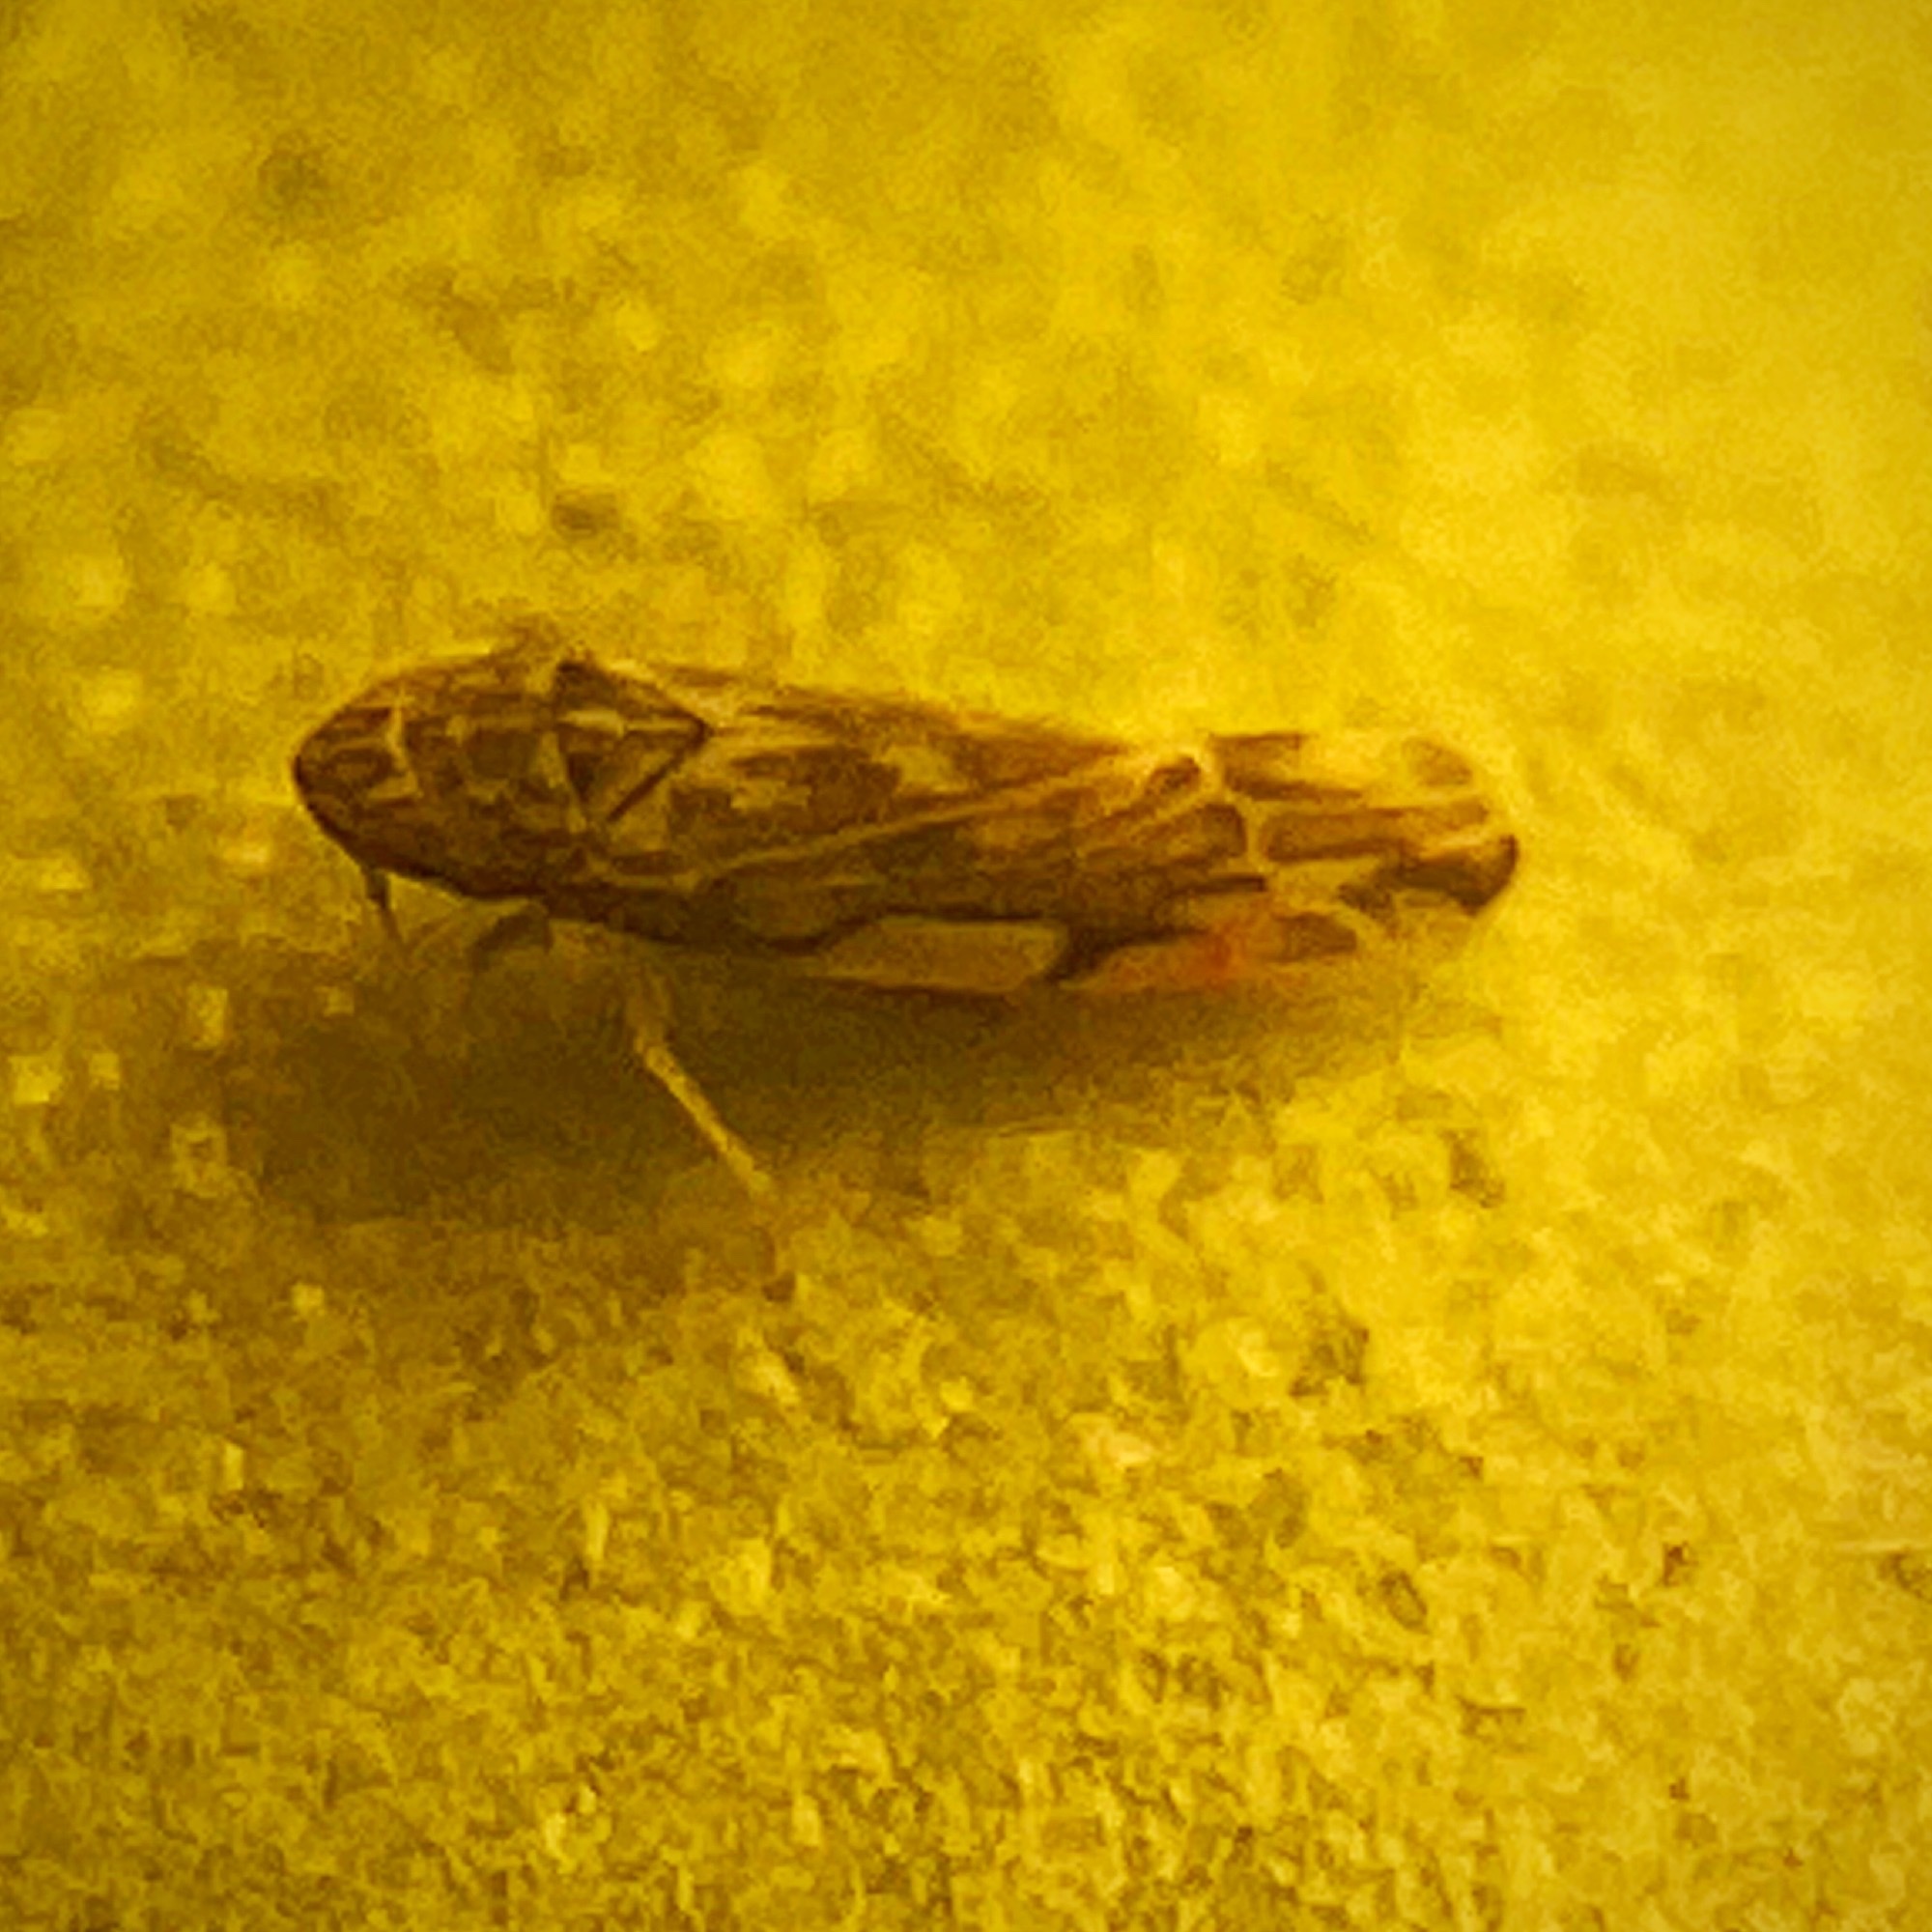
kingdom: Animalia
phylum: Arthropoda
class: Insecta
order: Hemiptera
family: Cicadellidae
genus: Erasmoneura
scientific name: Erasmoneura vulnerata
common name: The wounded leafhopper
